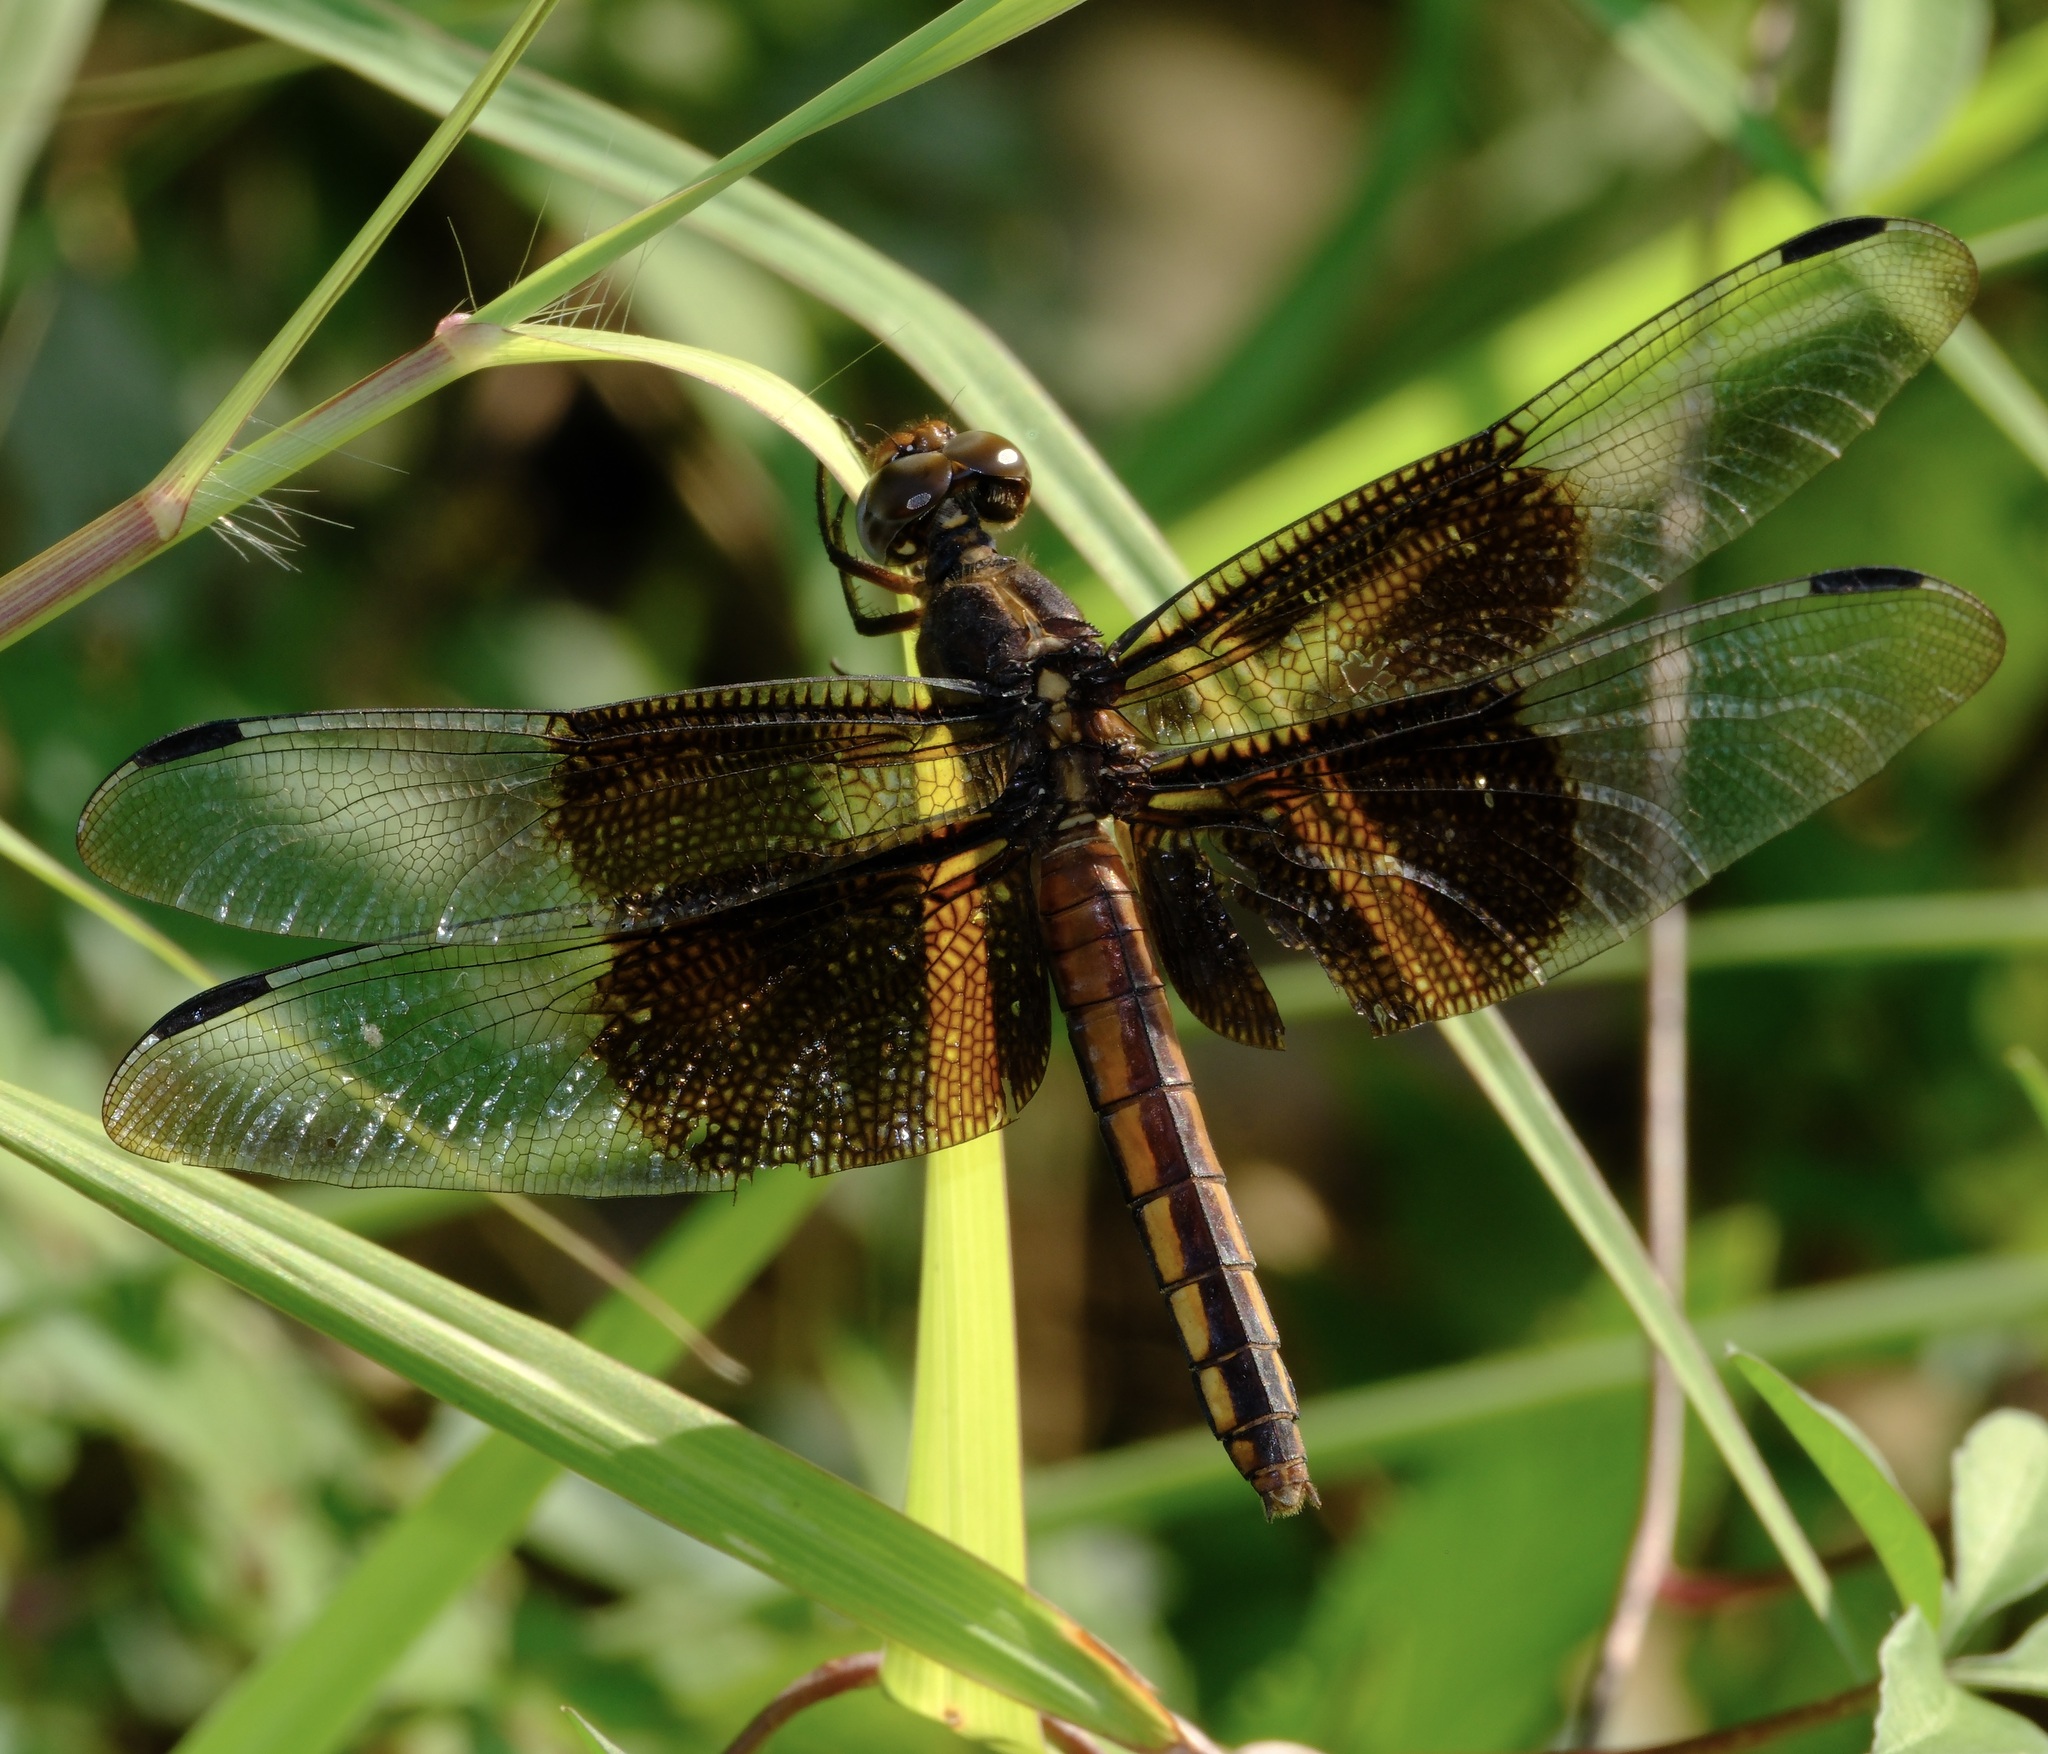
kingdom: Animalia
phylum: Arthropoda
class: Insecta
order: Odonata
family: Libellulidae
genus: Libellula
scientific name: Libellula luctuosa
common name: Widow skimmer
